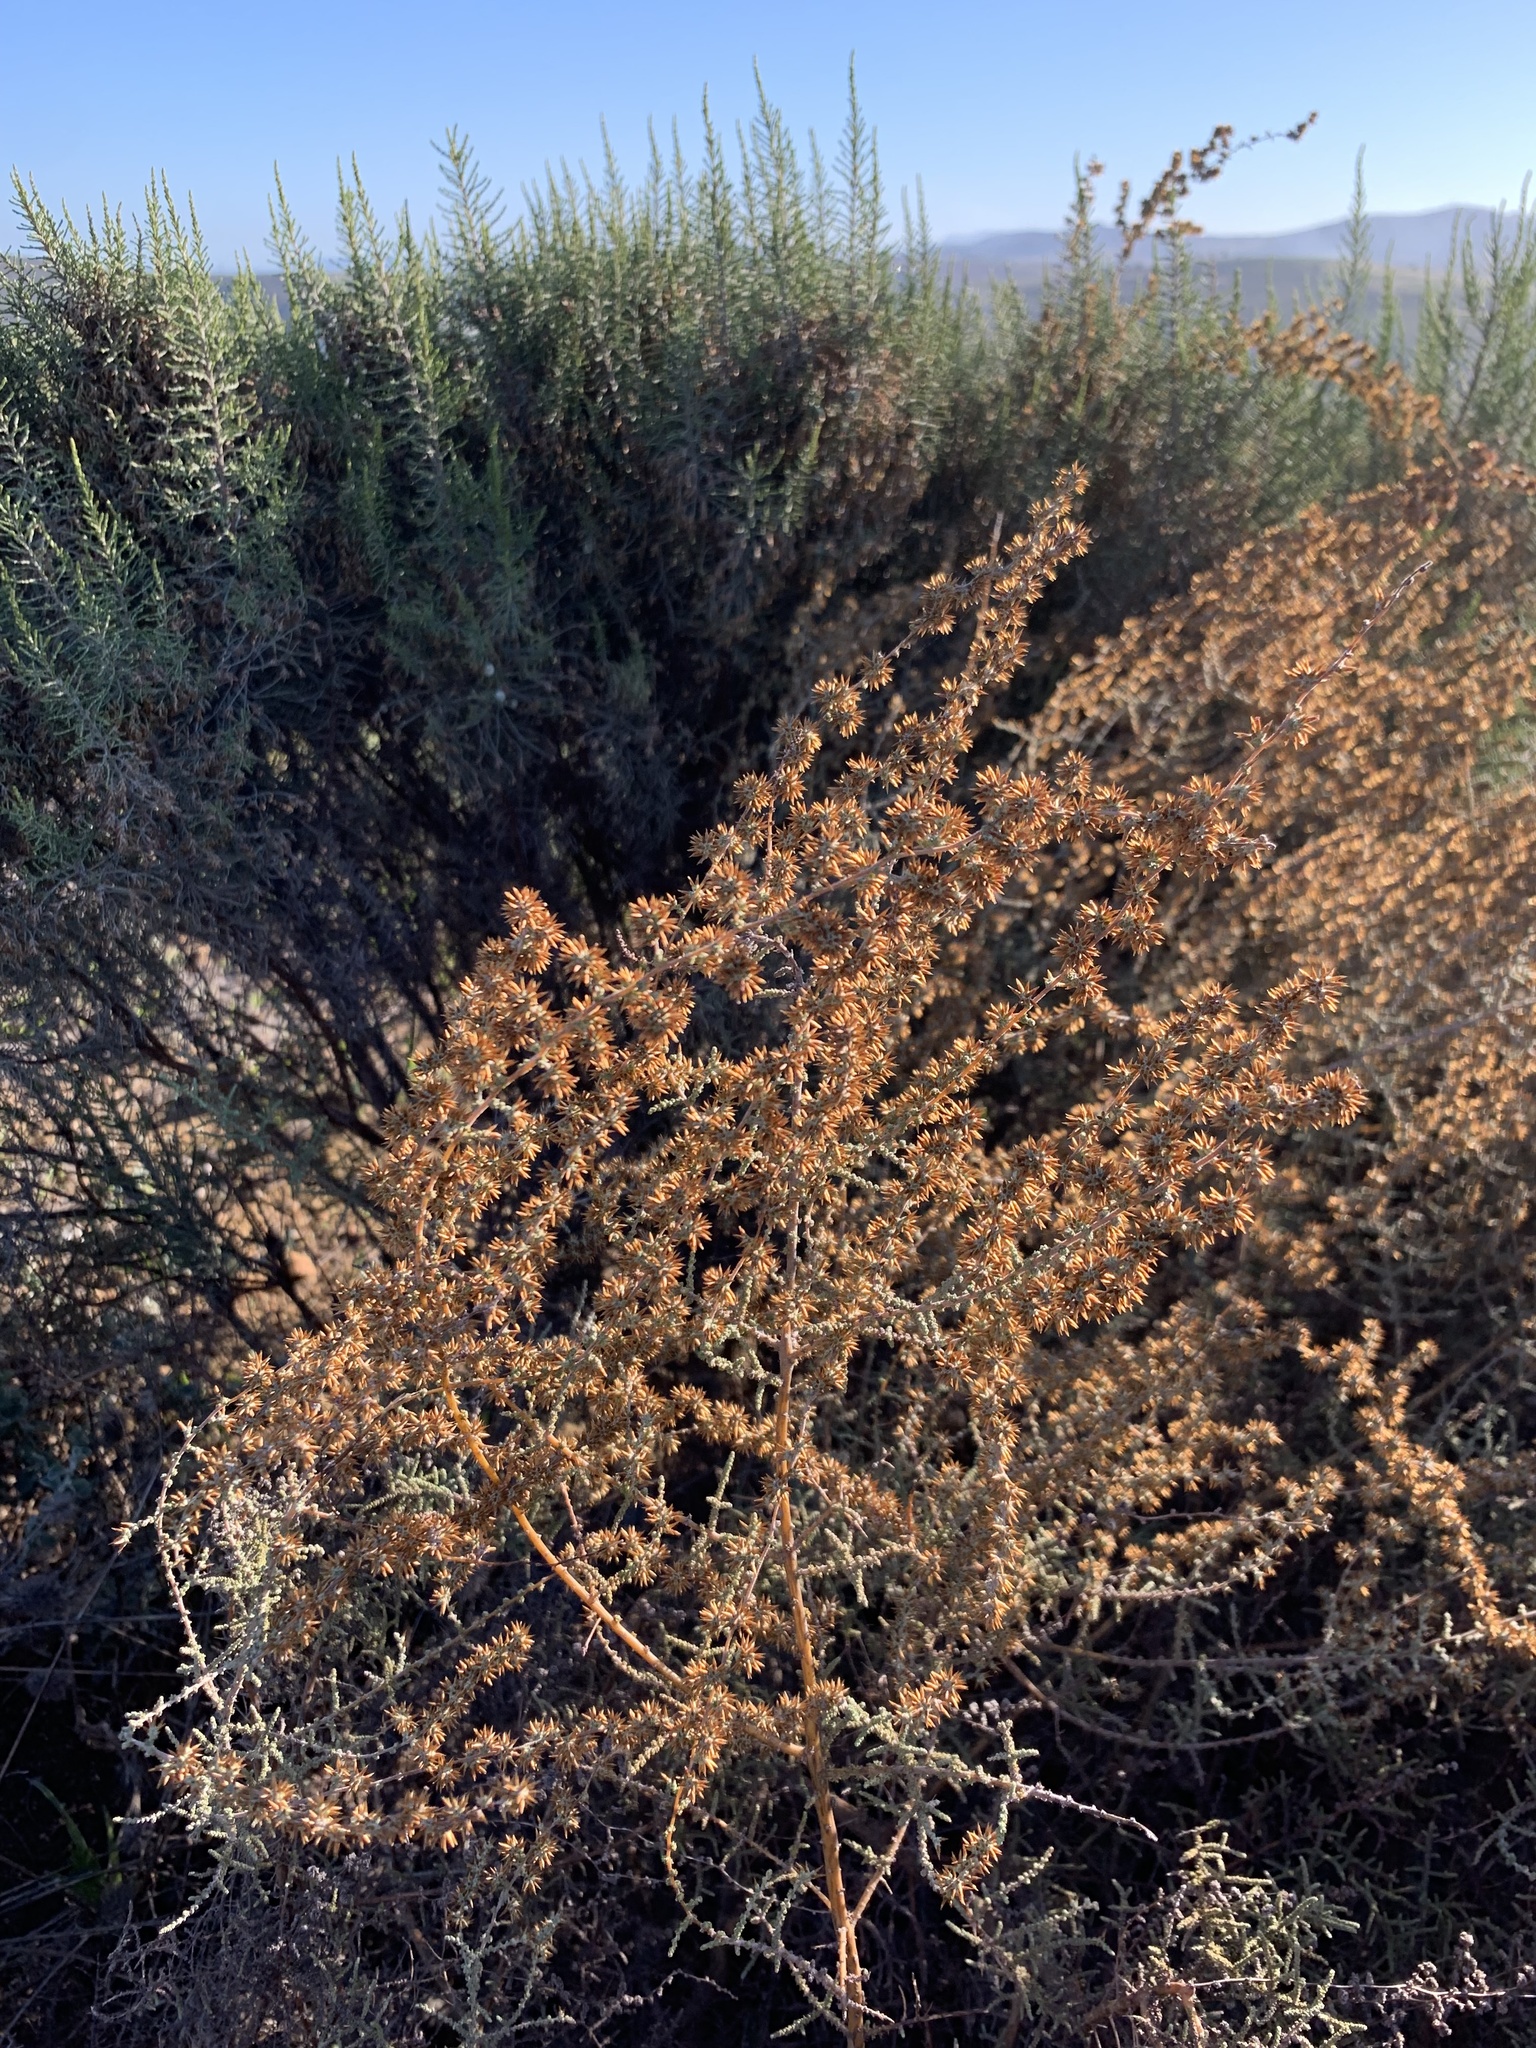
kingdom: Plantae
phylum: Tracheophyta
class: Magnoliopsida
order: Asterales
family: Asteraceae
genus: Seriphium
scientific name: Seriphium plumosum
